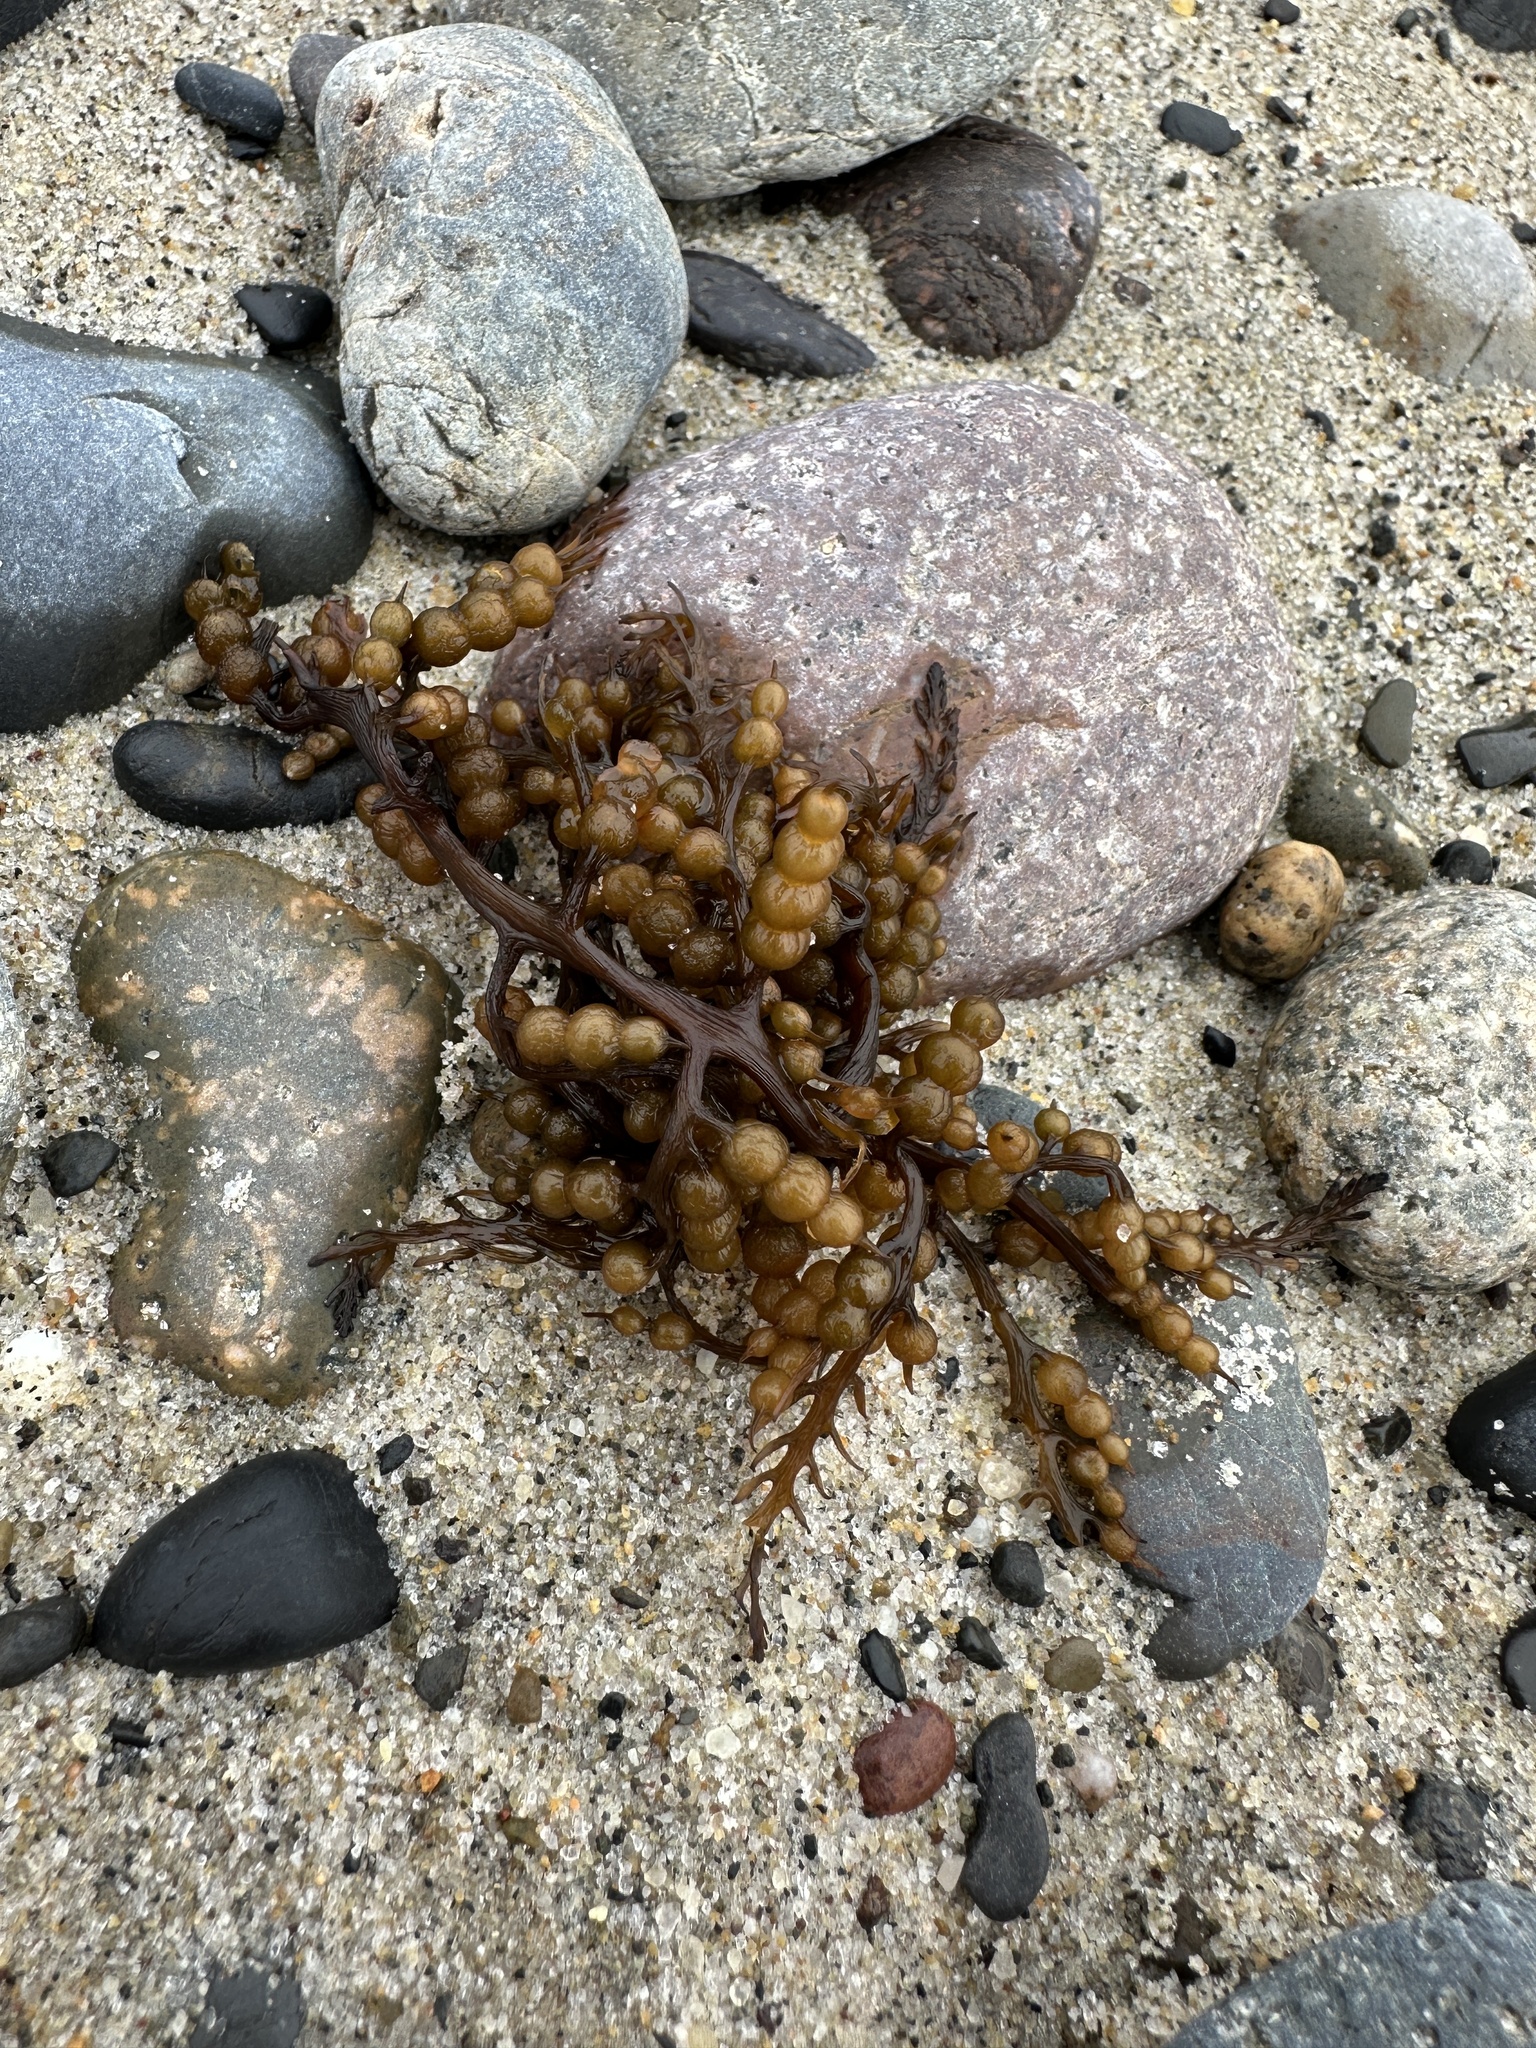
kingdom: Chromista
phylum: Ochrophyta
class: Phaeophyceae
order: Fucales
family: Sargassaceae
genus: Stephanocystis
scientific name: Stephanocystis
